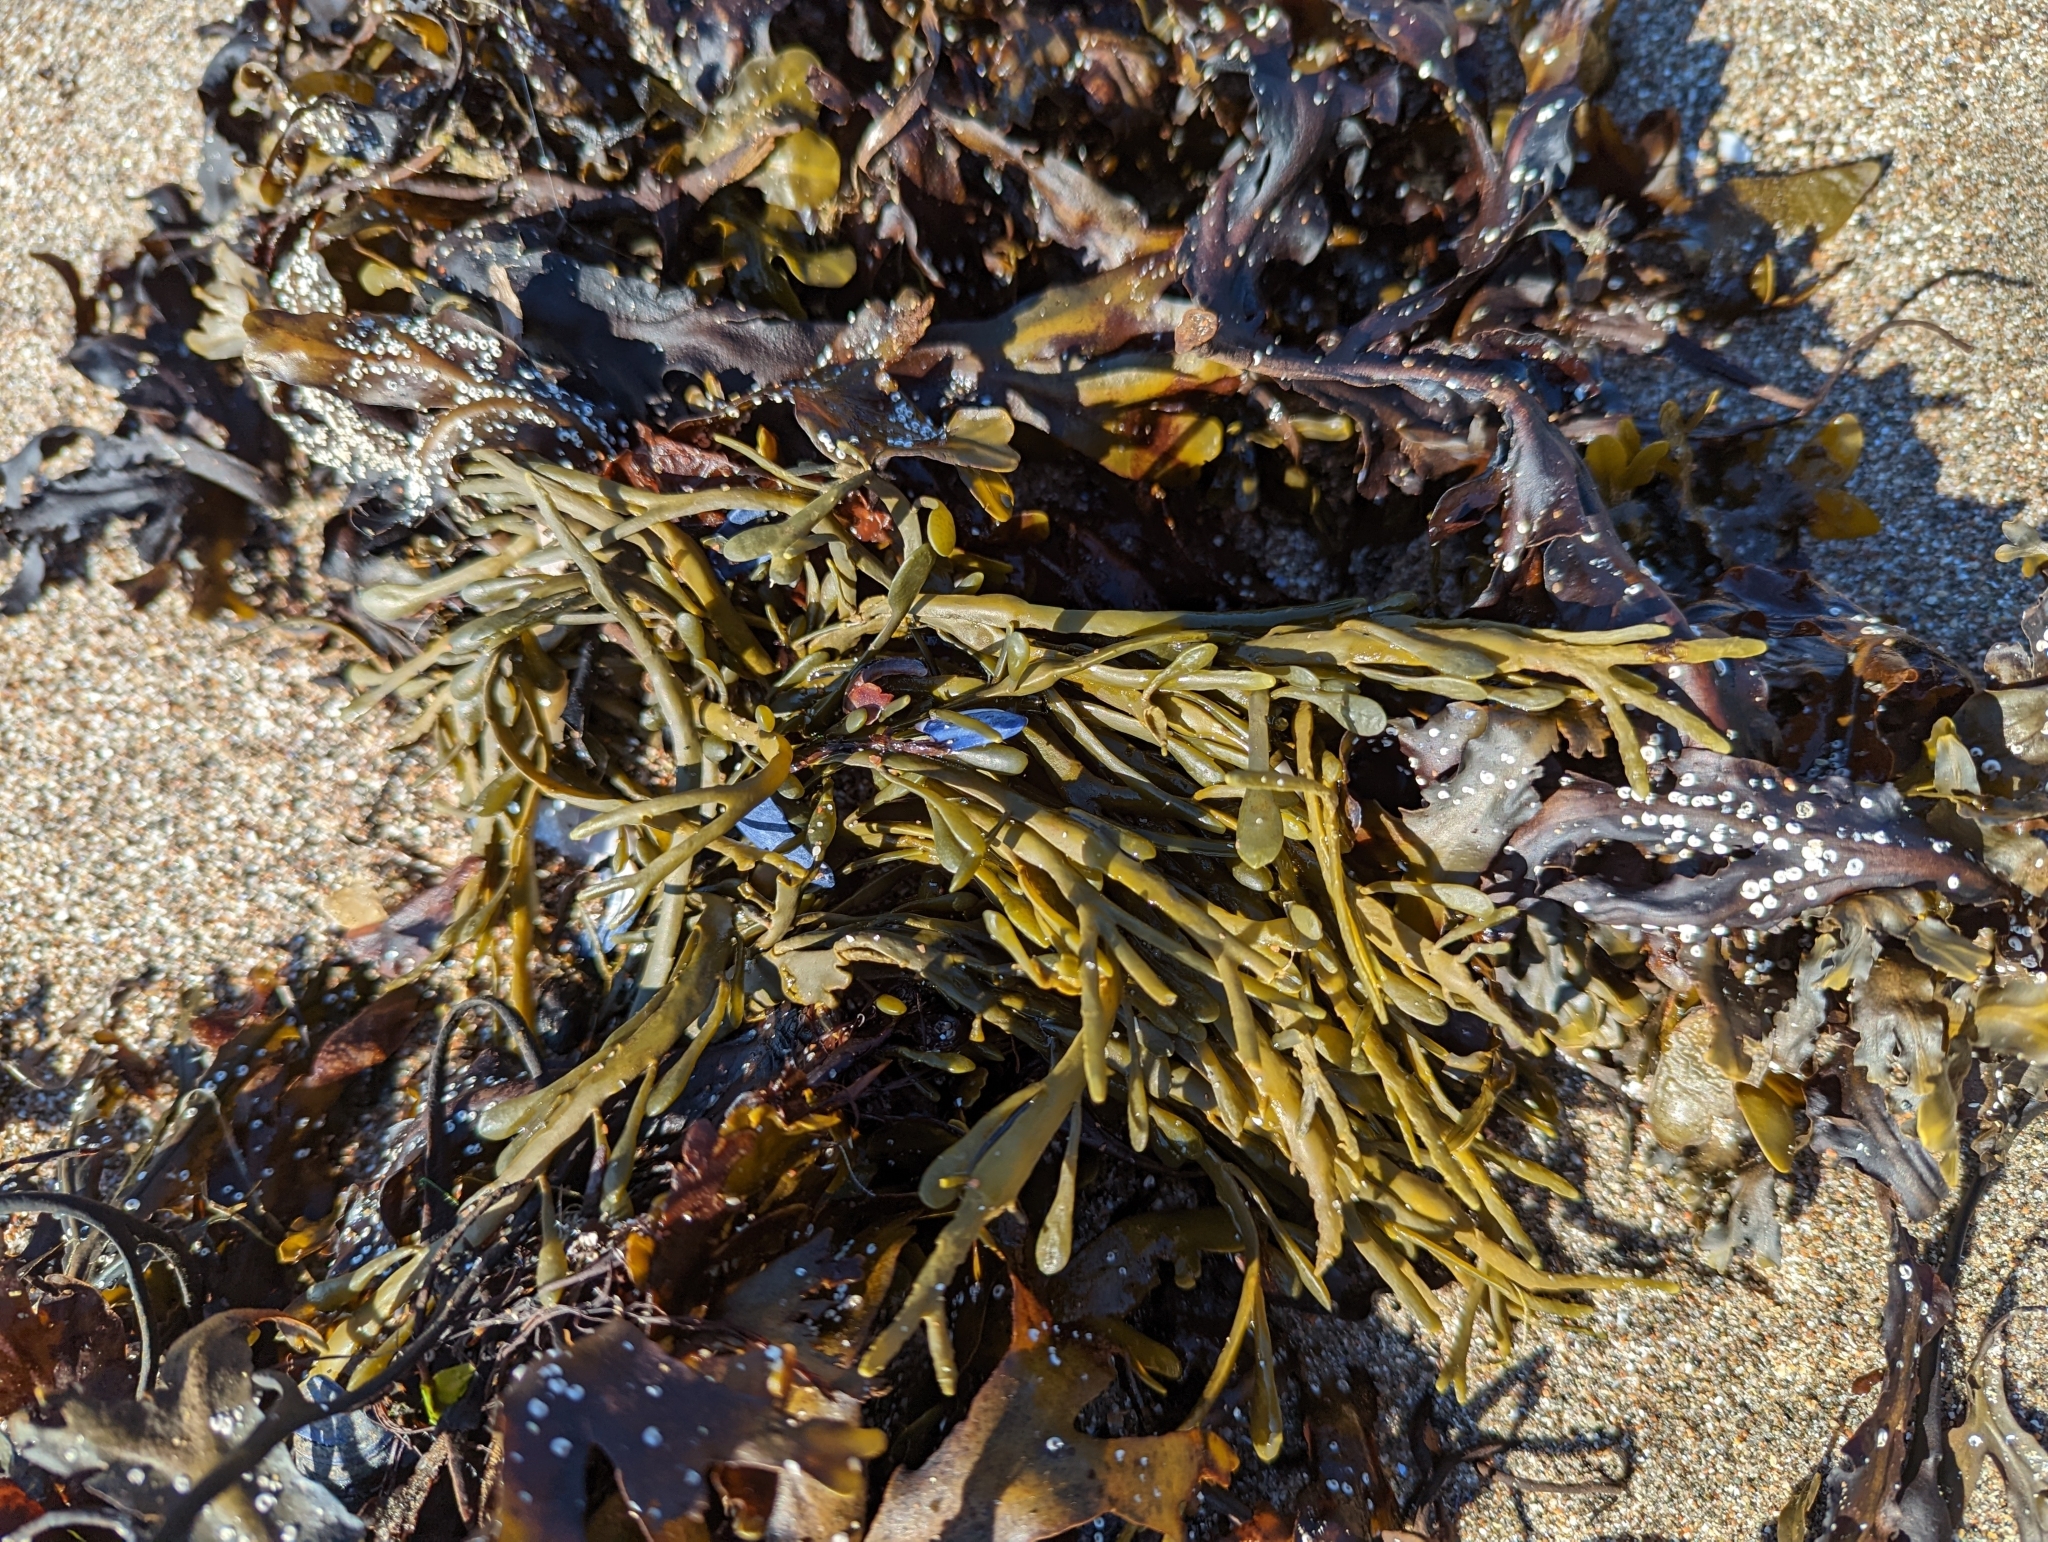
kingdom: Chromista
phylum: Ochrophyta
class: Phaeophyceae
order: Fucales
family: Fucaceae
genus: Ascophyllum
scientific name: Ascophyllum nodosum
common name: Knotted wrack
